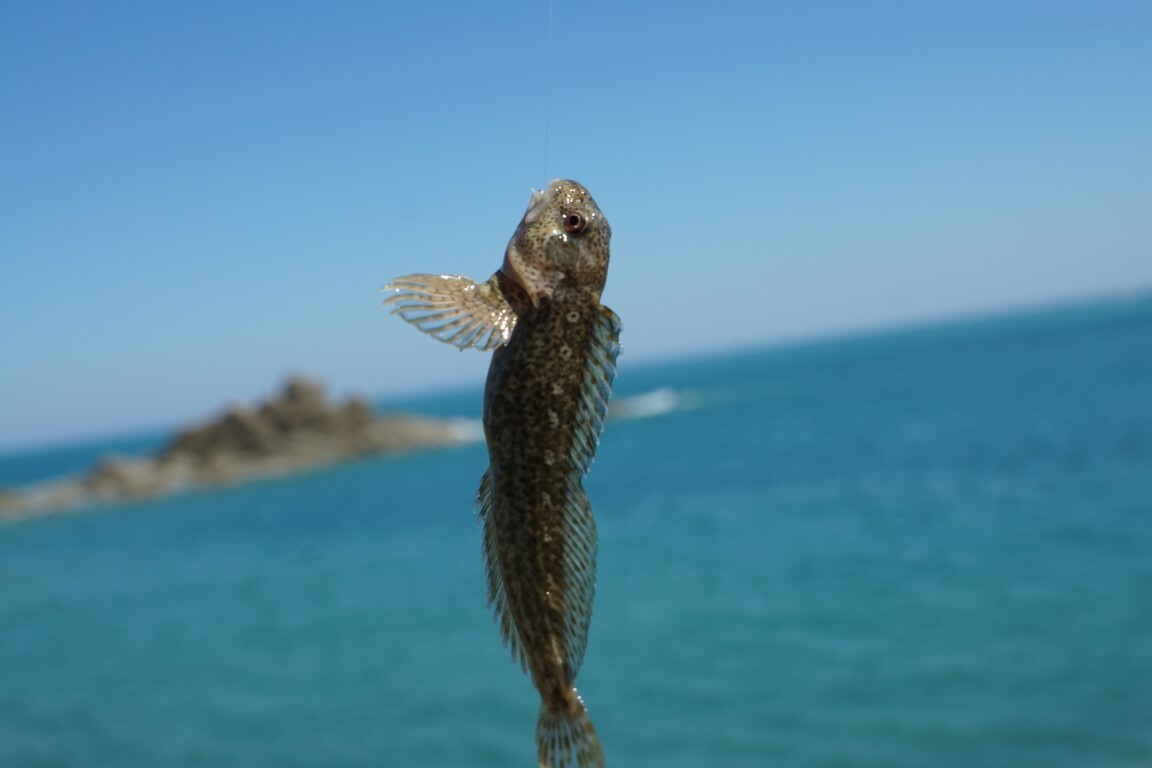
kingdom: Animalia
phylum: Chordata
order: Perciformes
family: Blenniidae
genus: Lipophrys
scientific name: Lipophrys pholis
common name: Shanny
